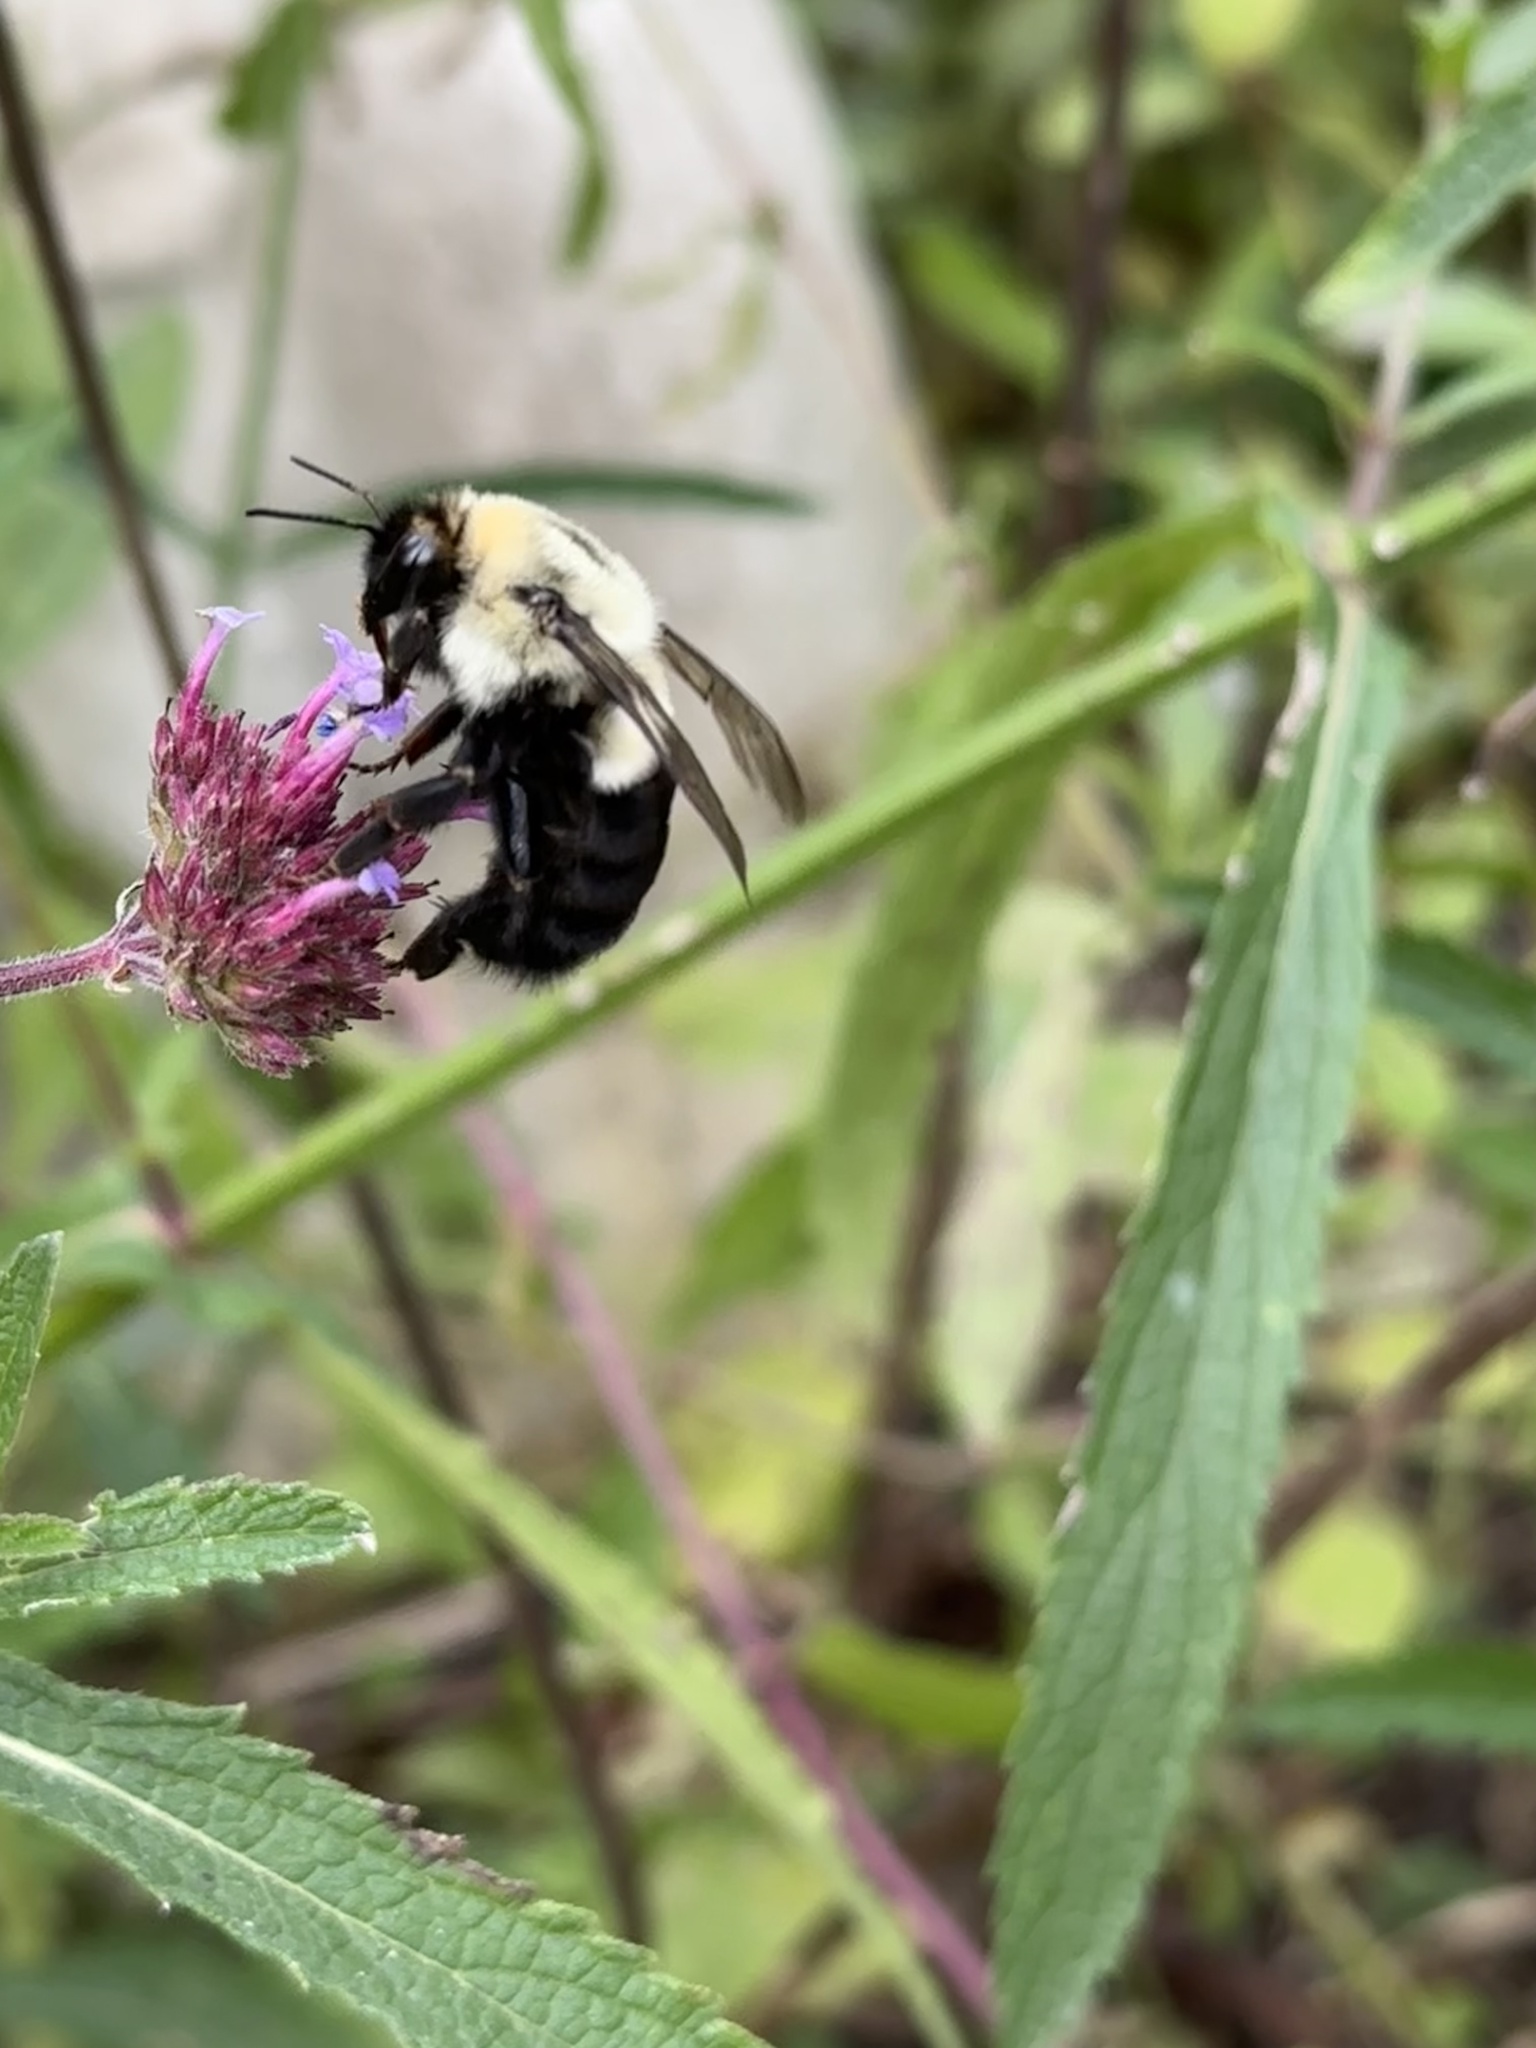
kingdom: Animalia
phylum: Arthropoda
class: Insecta
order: Hymenoptera
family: Apidae
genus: Bombus
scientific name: Bombus impatiens
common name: Common eastern bumble bee
